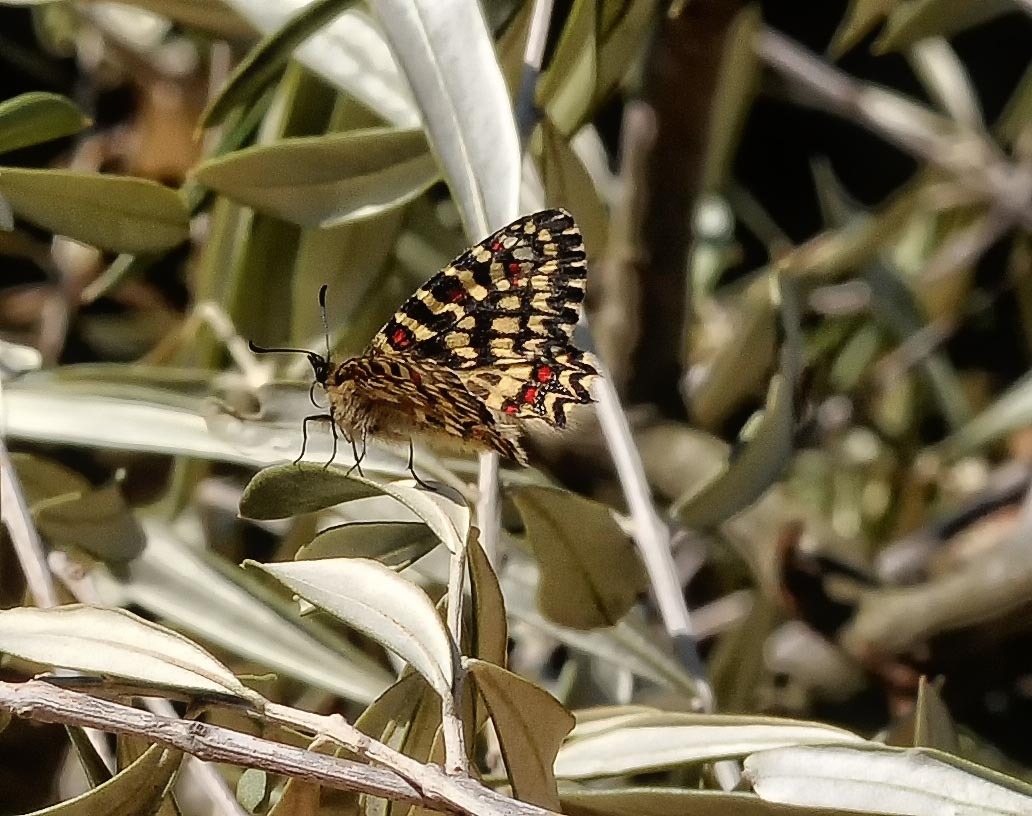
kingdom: Animalia
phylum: Arthropoda
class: Insecta
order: Lepidoptera
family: Papilionidae
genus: Zerynthia
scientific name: Zerynthia rumina
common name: Spanish festoon
